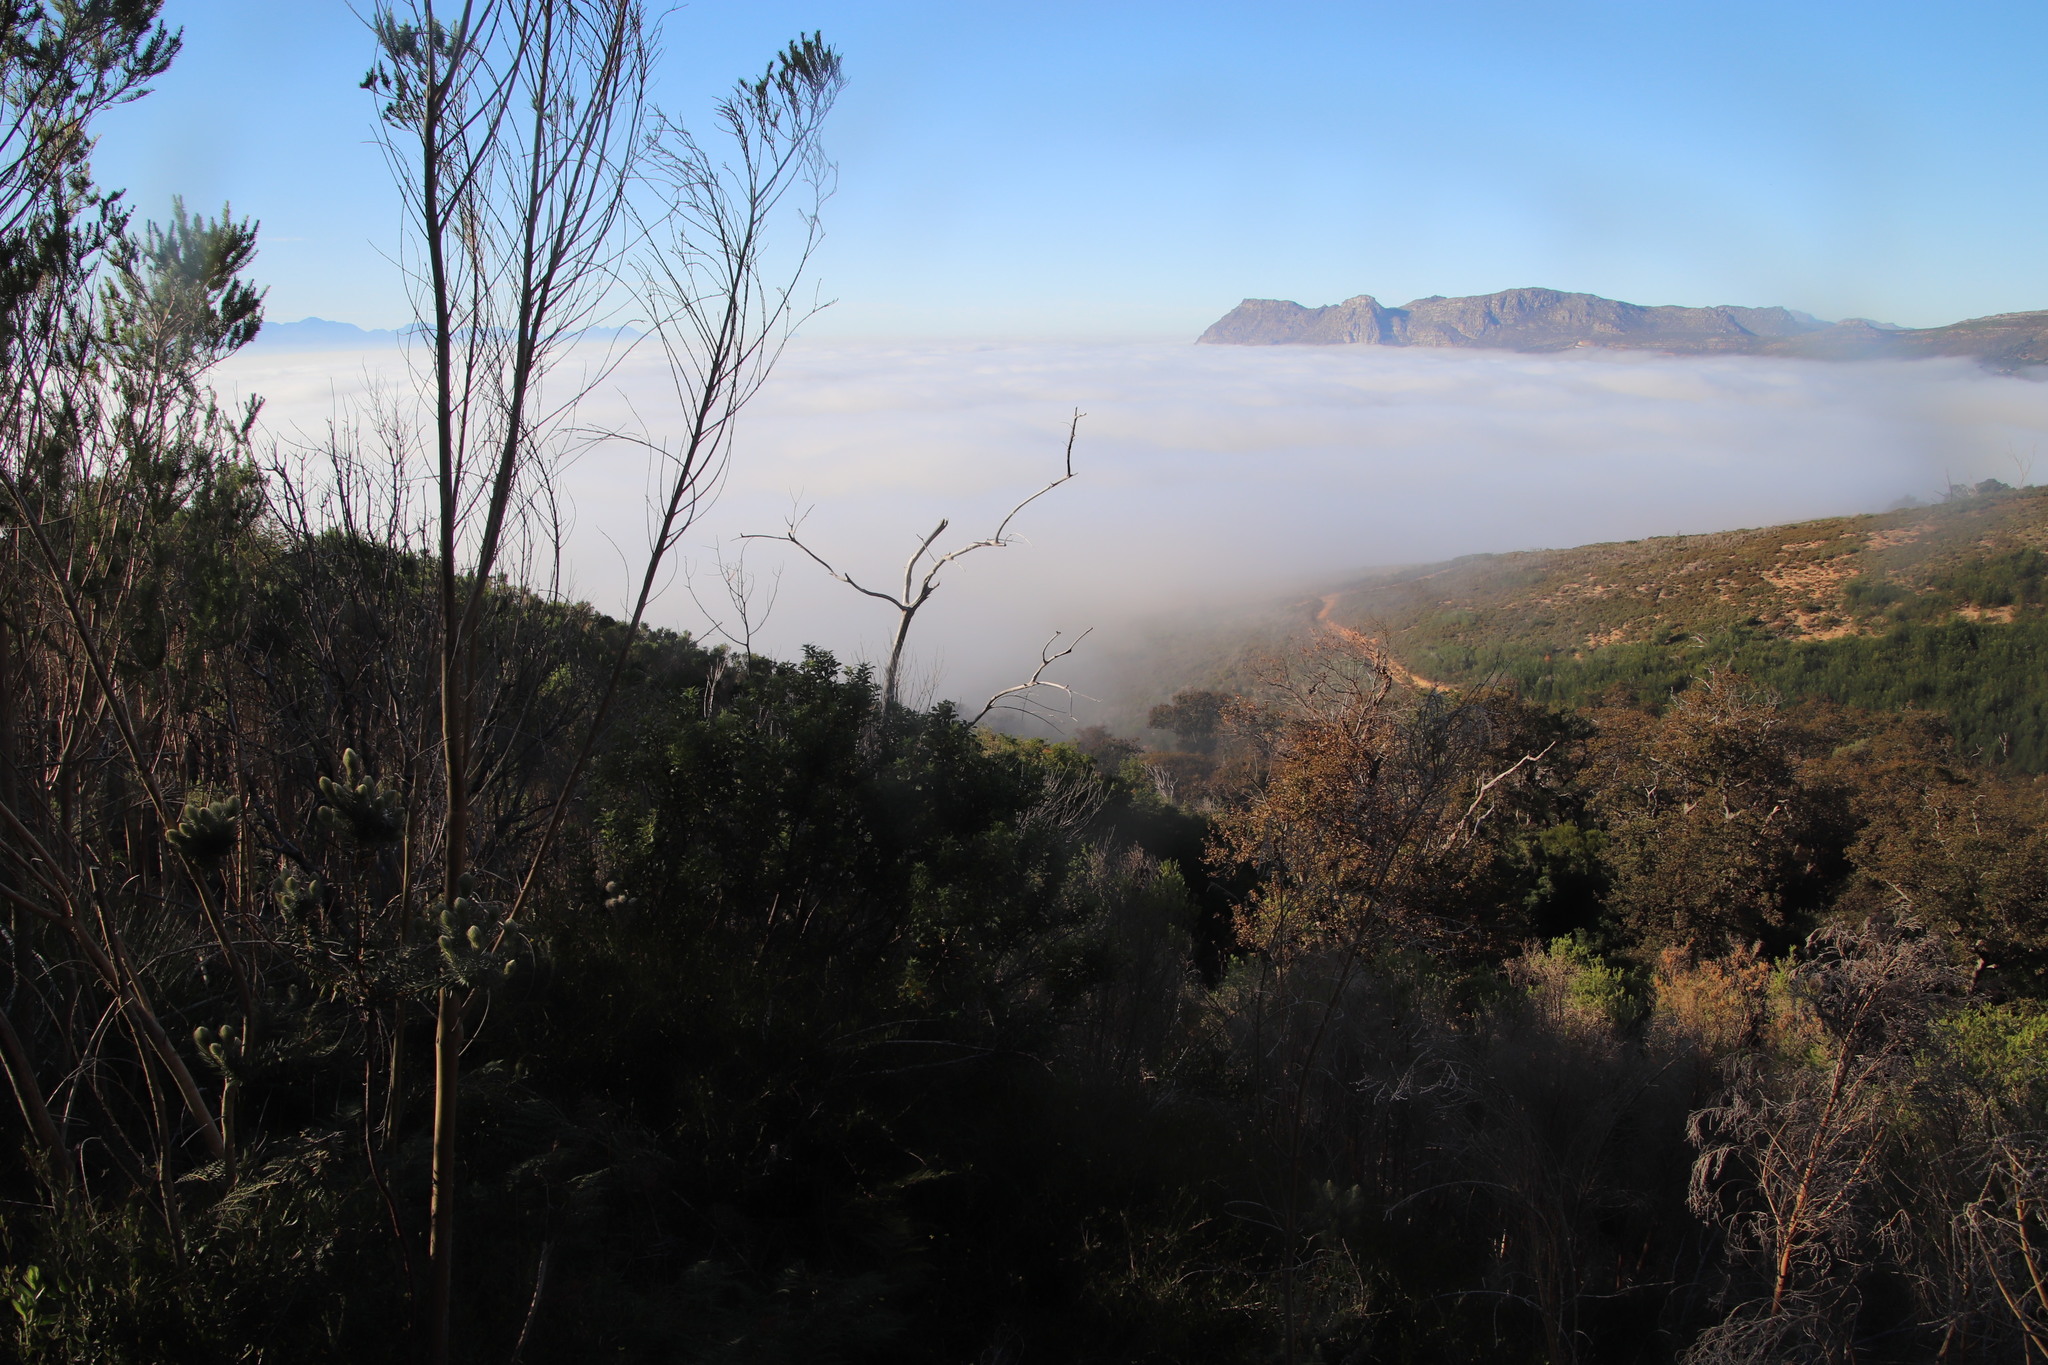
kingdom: Plantae
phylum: Tracheophyta
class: Magnoliopsida
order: Fabales
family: Fabaceae
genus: Aspalathus
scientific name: Aspalathus macrantha
